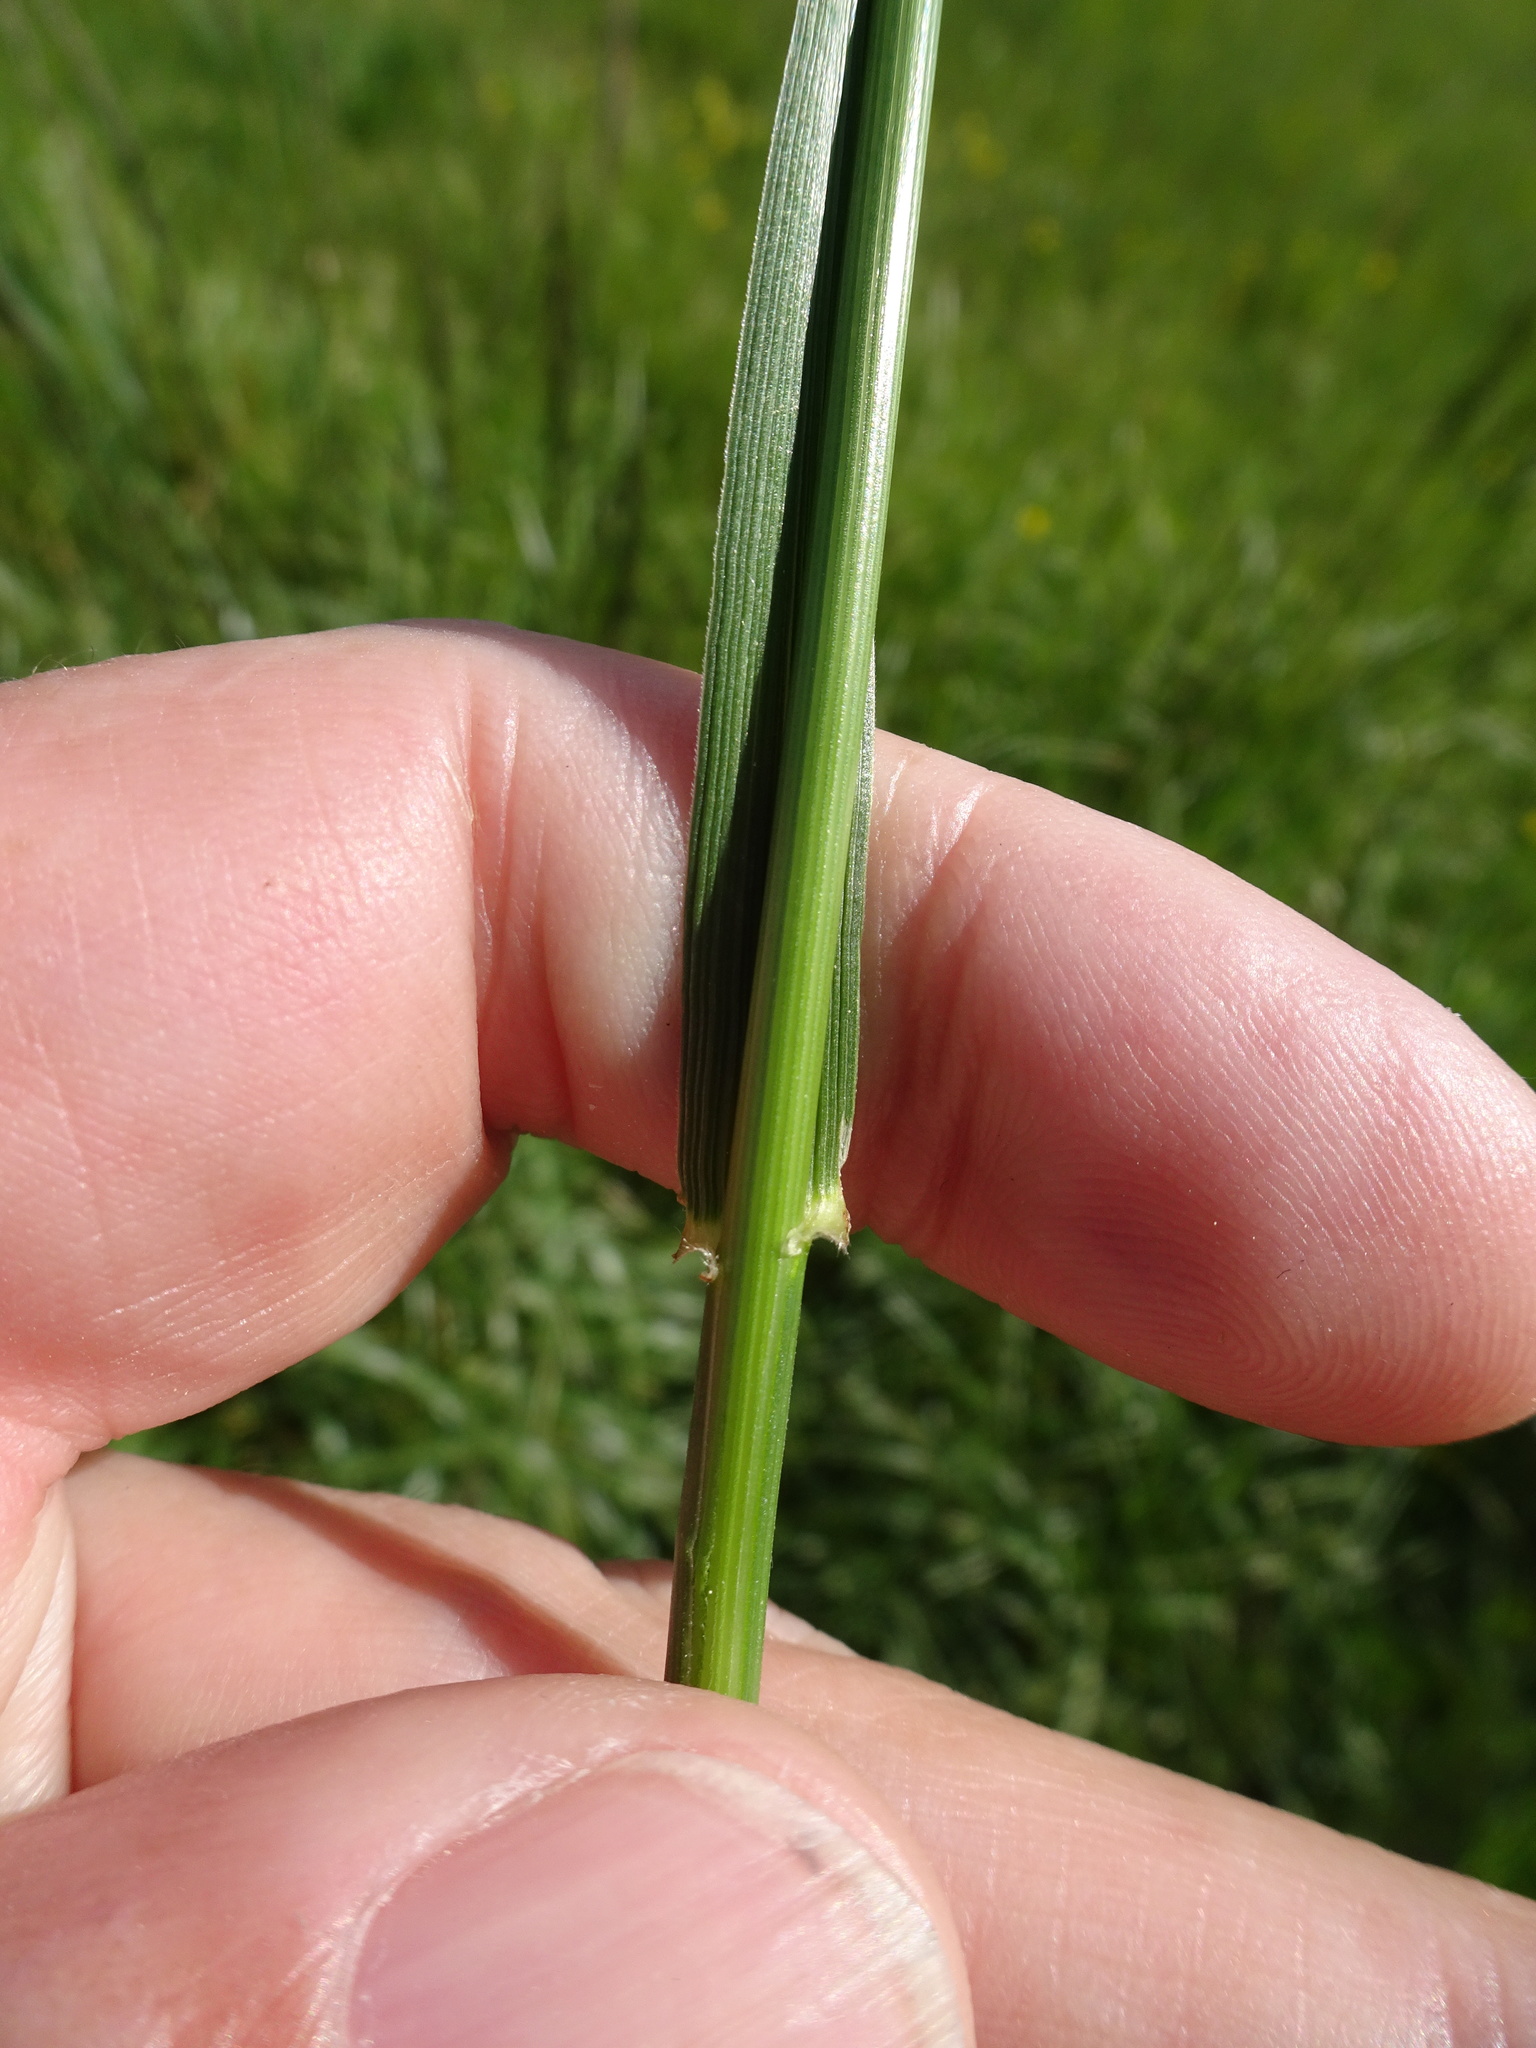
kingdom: Plantae
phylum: Tracheophyta
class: Liliopsida
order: Poales
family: Poaceae
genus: Lolium
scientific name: Lolium arundinaceum
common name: Reed fescue
